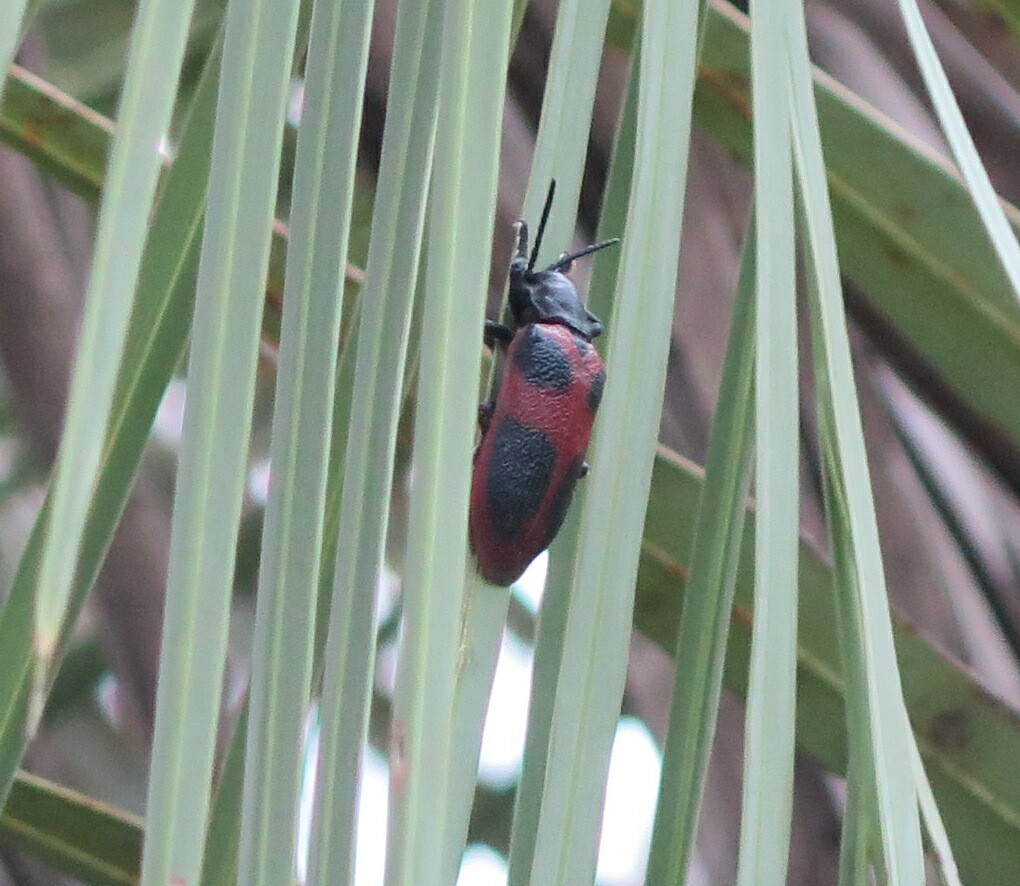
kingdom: Animalia
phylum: Arthropoda
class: Insecta
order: Coleoptera
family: Chrysomelidae
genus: Coraliomela
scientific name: Coraliomela quadrimaculata
